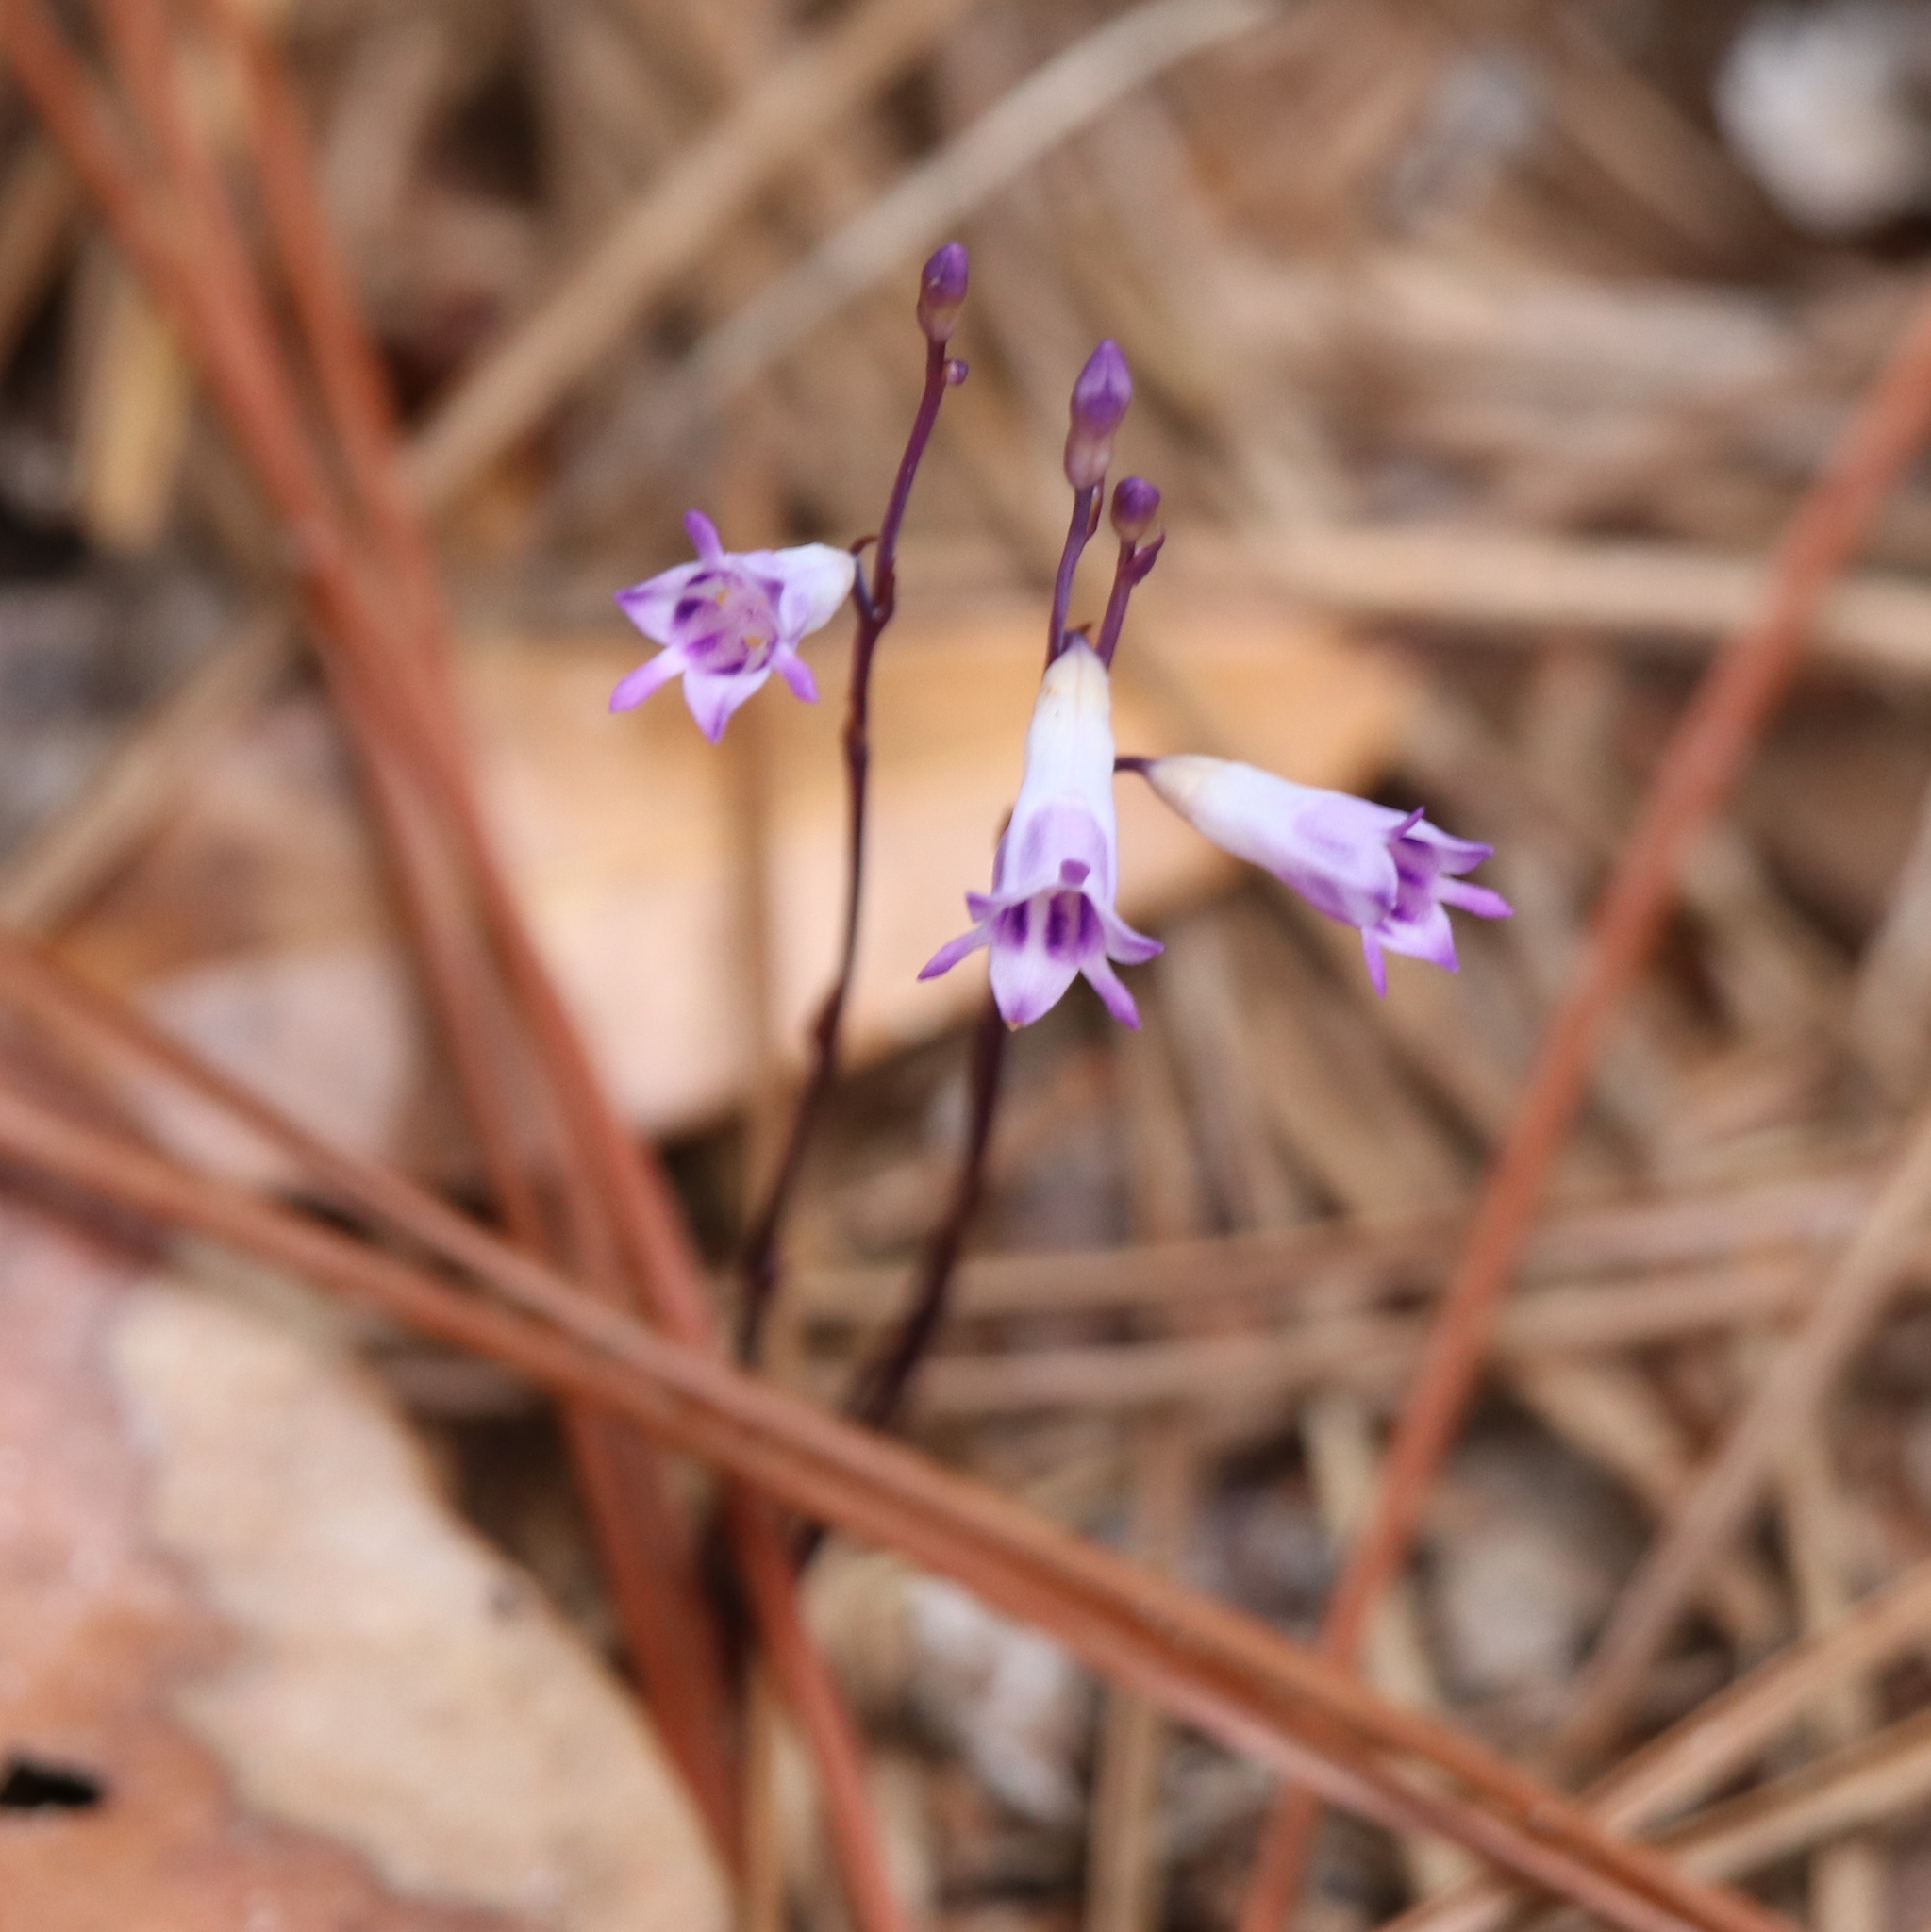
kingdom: Plantae
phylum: Tracheophyta
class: Liliopsida
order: Dioscoreales
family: Burmanniaceae
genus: Apteria
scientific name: Apteria aphylla
